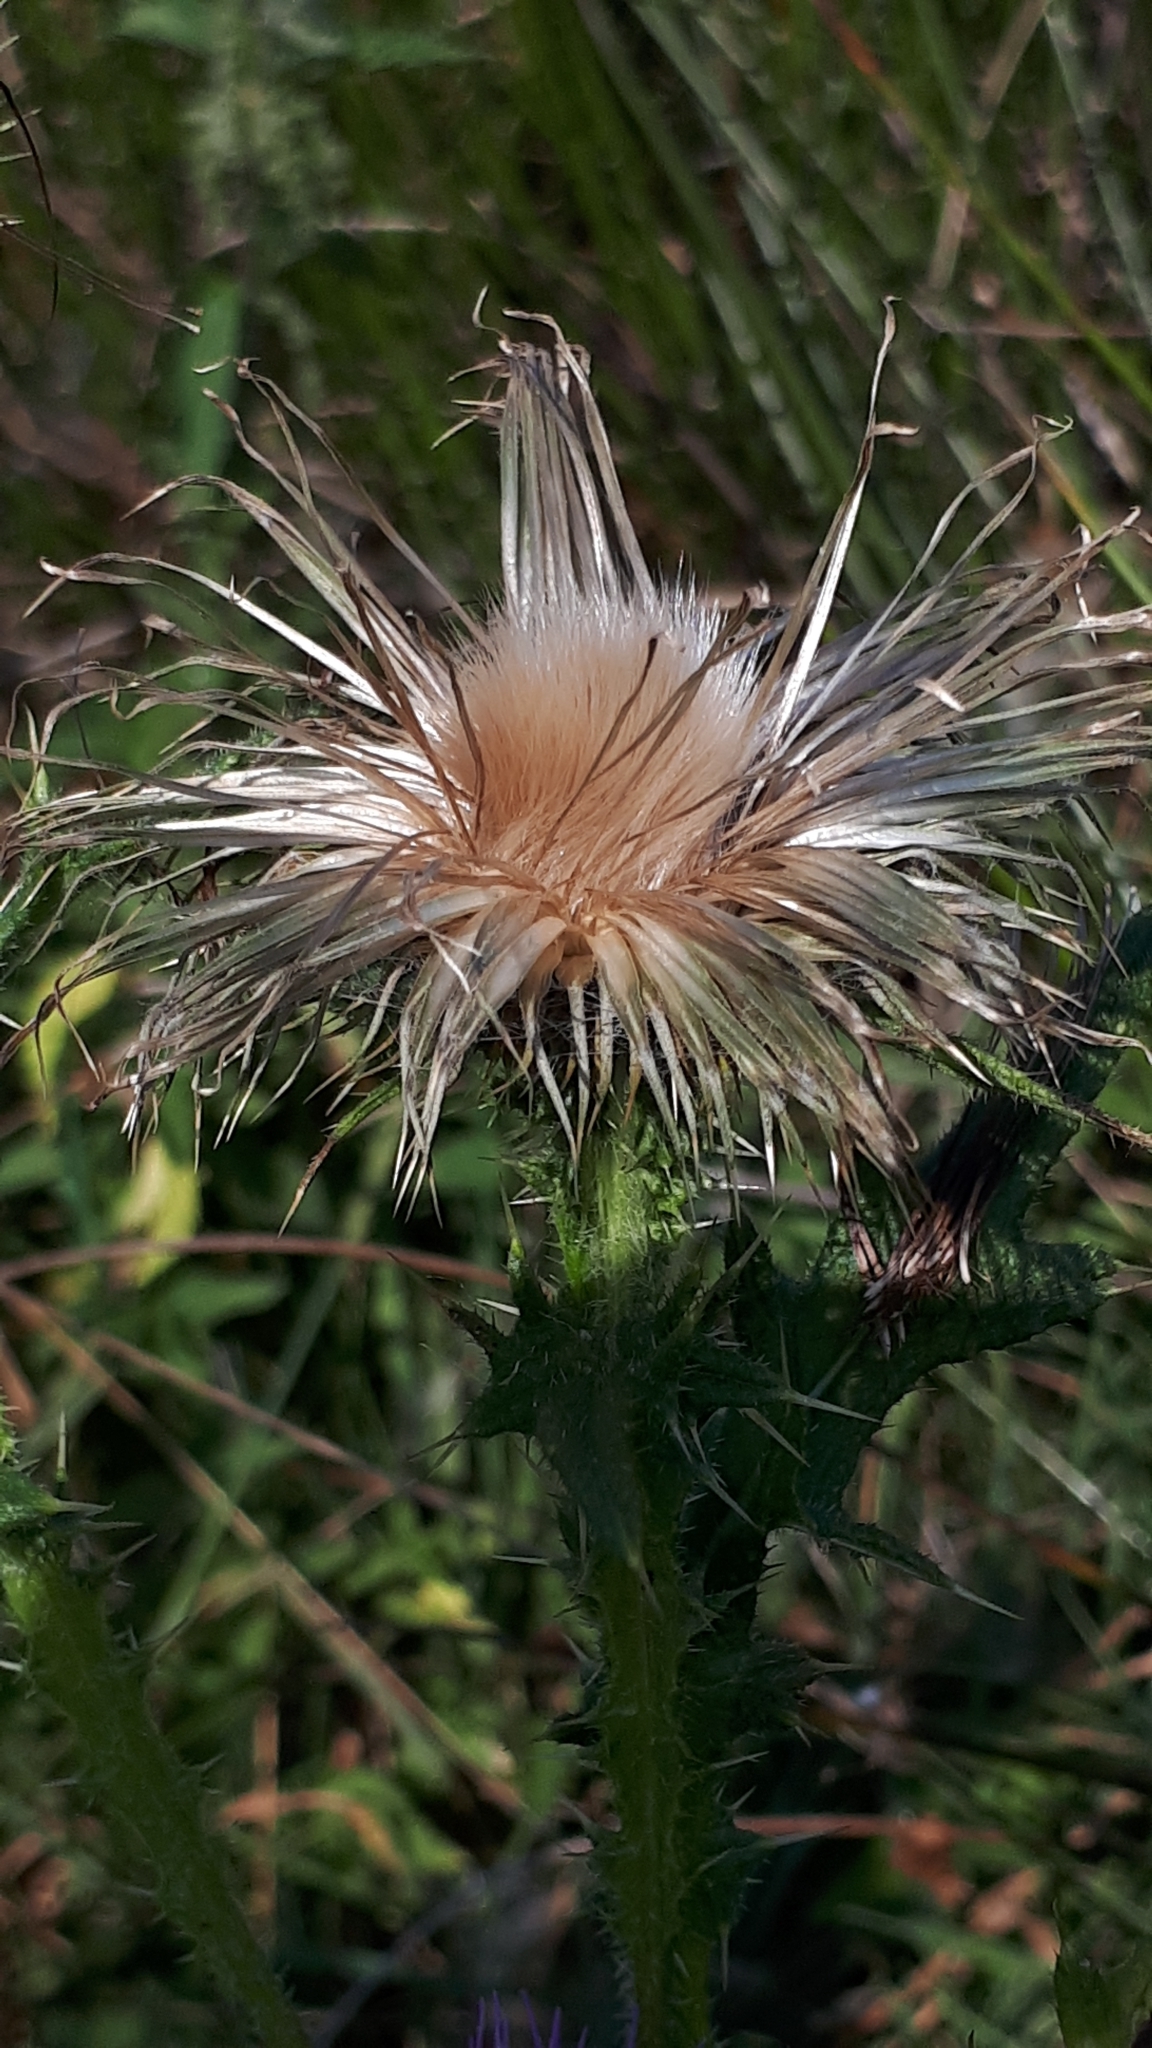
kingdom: Plantae
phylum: Tracheophyta
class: Magnoliopsida
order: Asterales
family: Asteraceae
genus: Cirsium
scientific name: Cirsium vulgare
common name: Bull thistle
